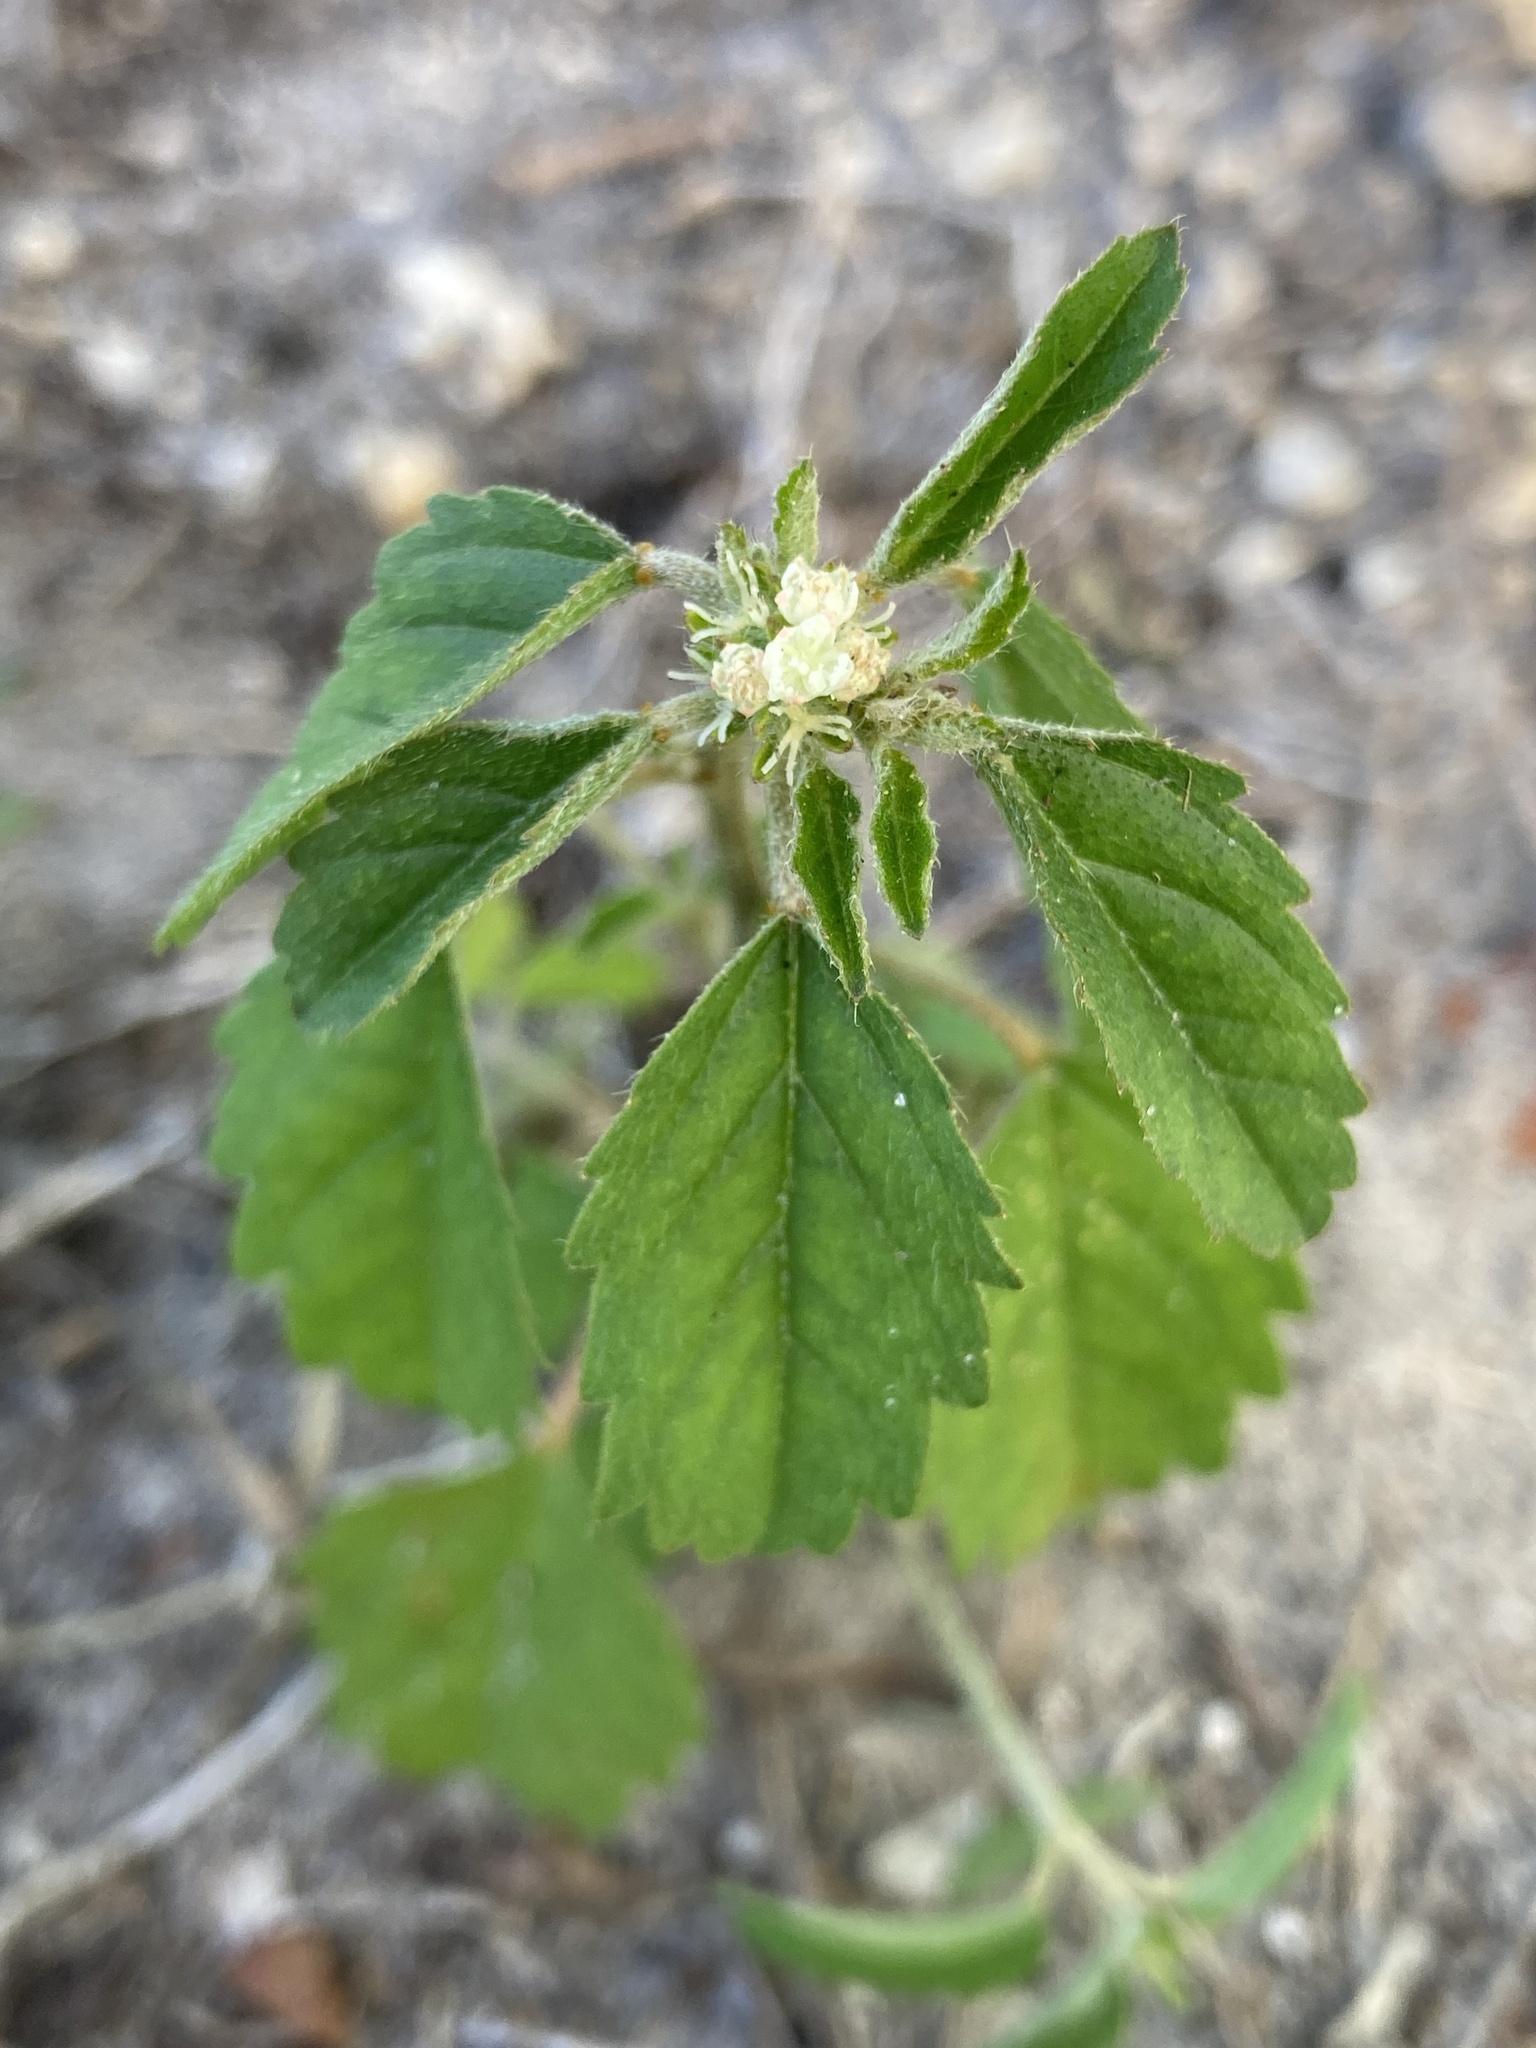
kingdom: Plantae
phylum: Tracheophyta
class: Magnoliopsida
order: Malpighiales
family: Euphorbiaceae
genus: Croton
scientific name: Croton glandulosus
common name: Tropic croton
